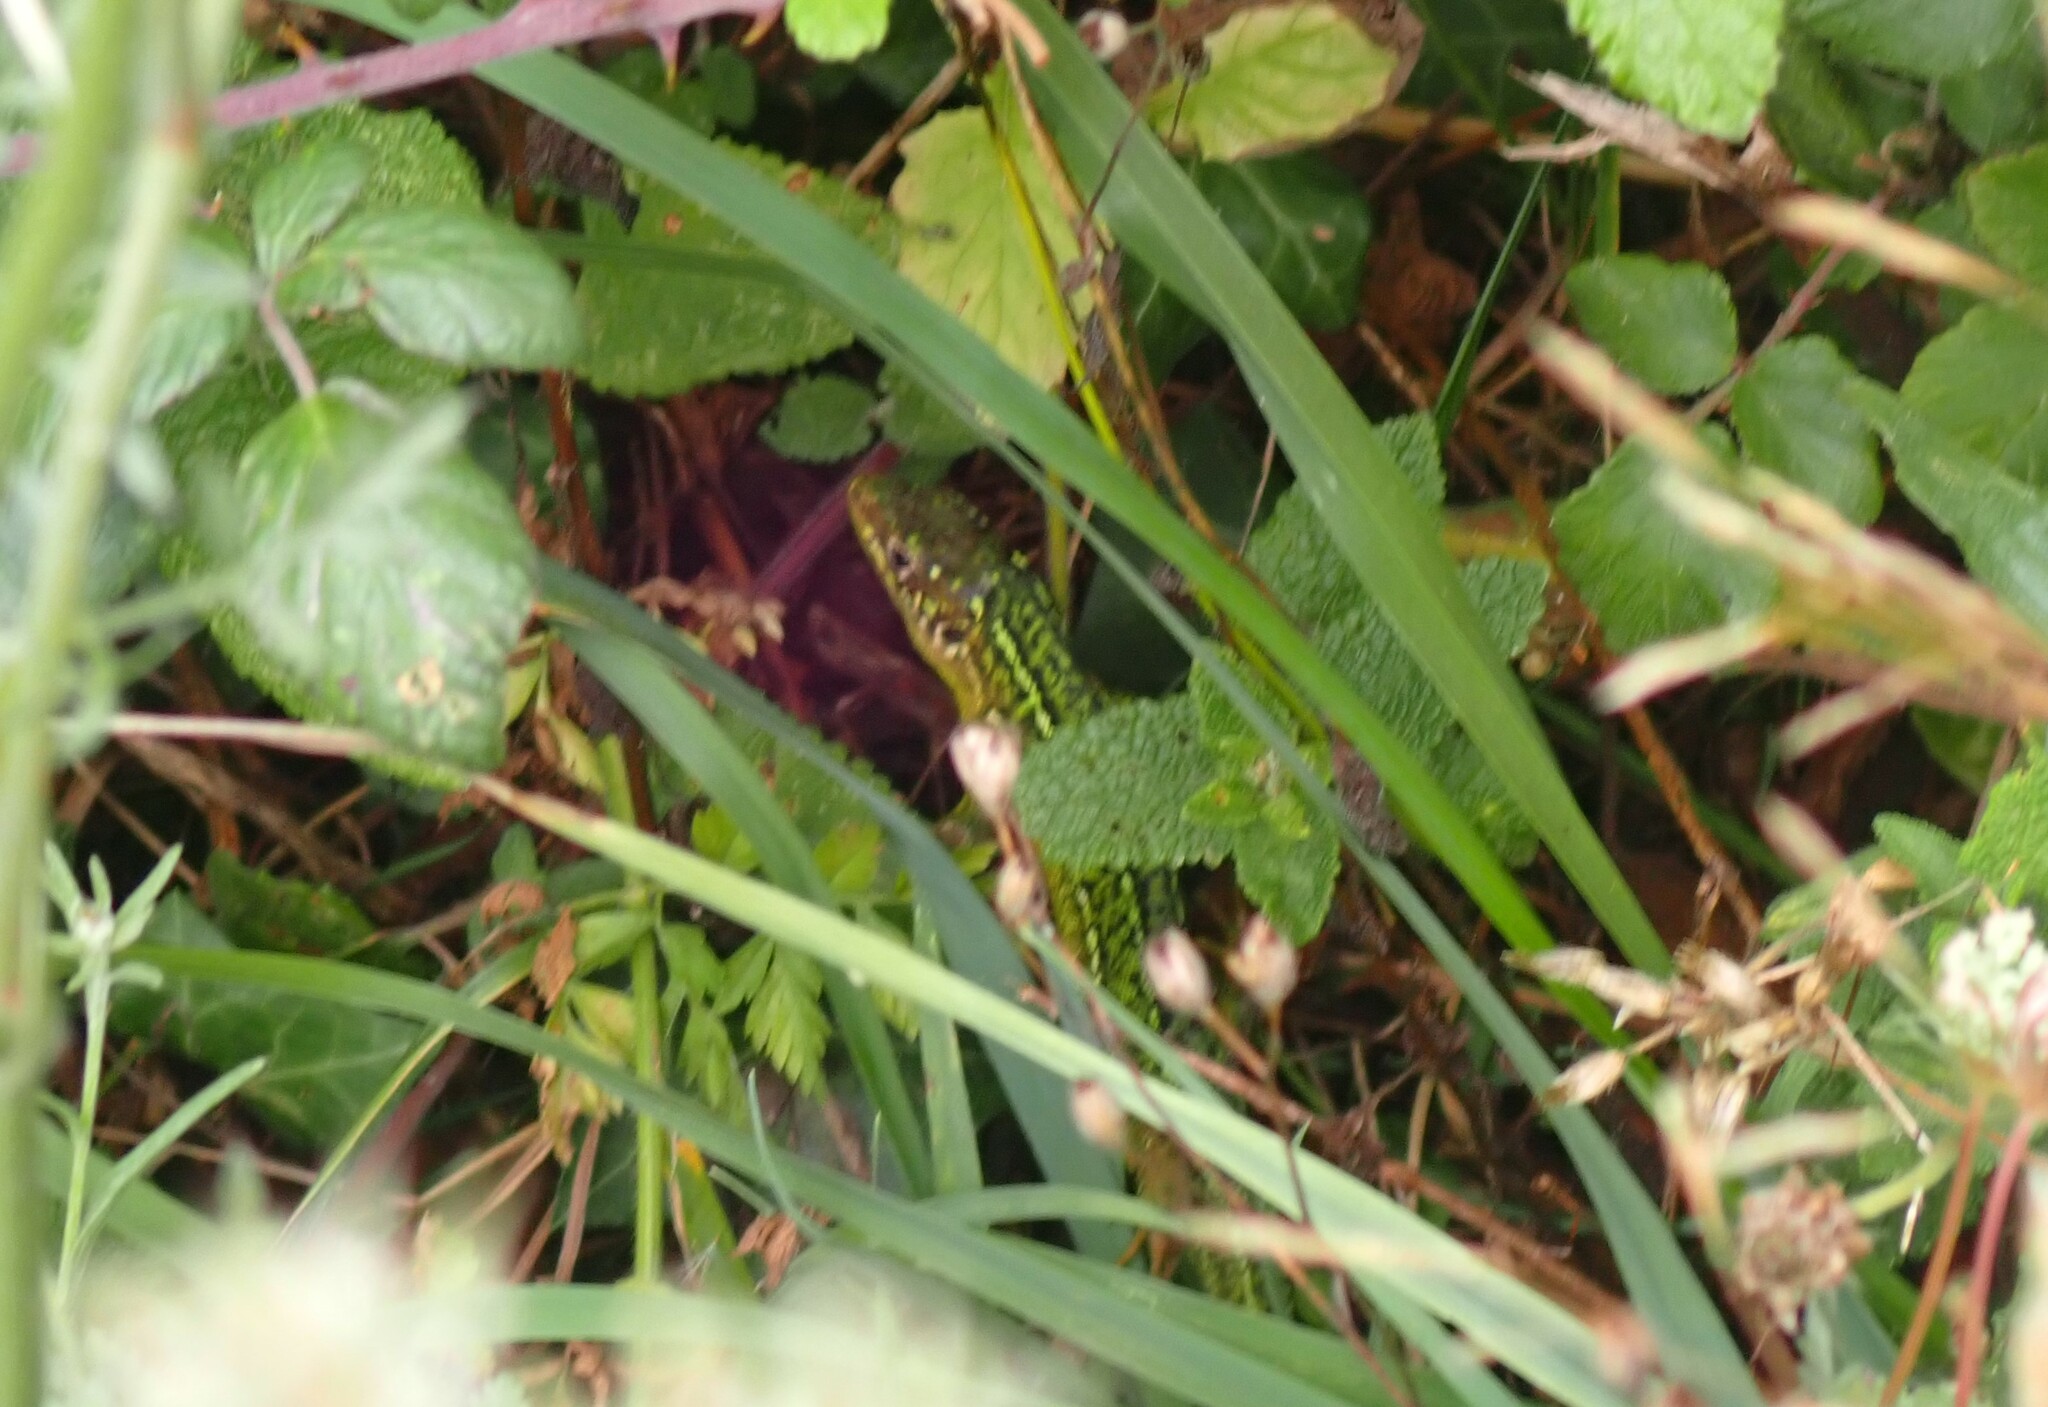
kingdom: Animalia
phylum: Chordata
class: Squamata
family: Lacertidae
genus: Lacerta
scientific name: Lacerta bilineata
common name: Western green lizard
